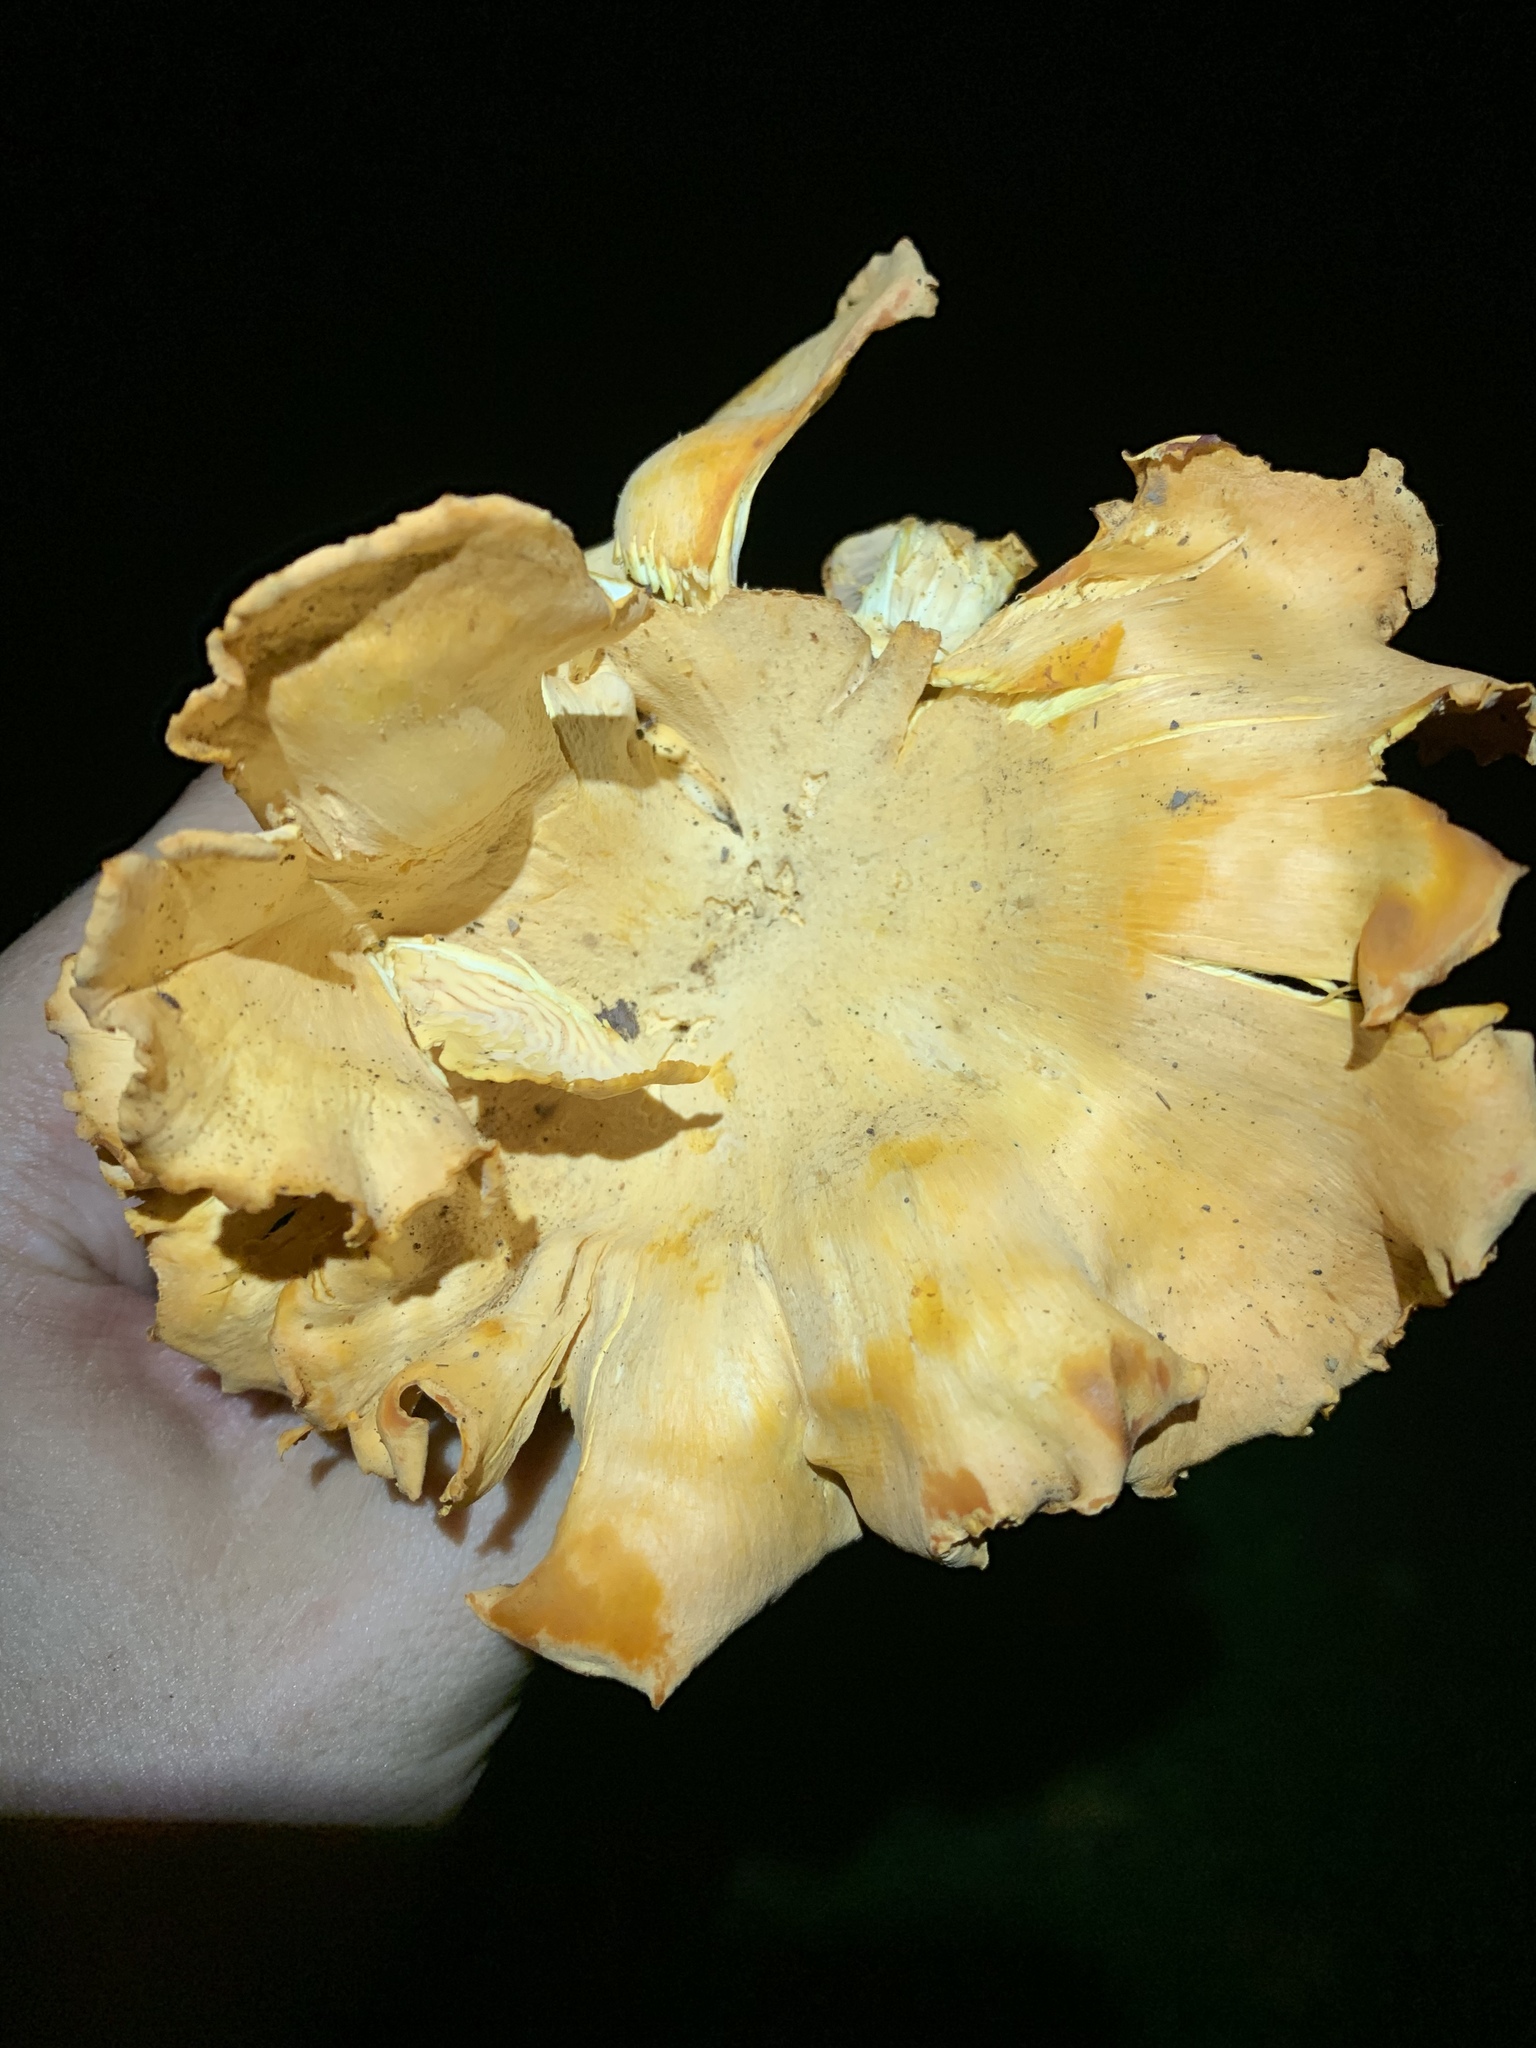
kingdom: Fungi
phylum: Basidiomycota
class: Agaricomycetes
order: Cantharellales
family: Hydnaceae
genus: Cantharellus
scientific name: Cantharellus lateritius
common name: Smooth chanterelle
